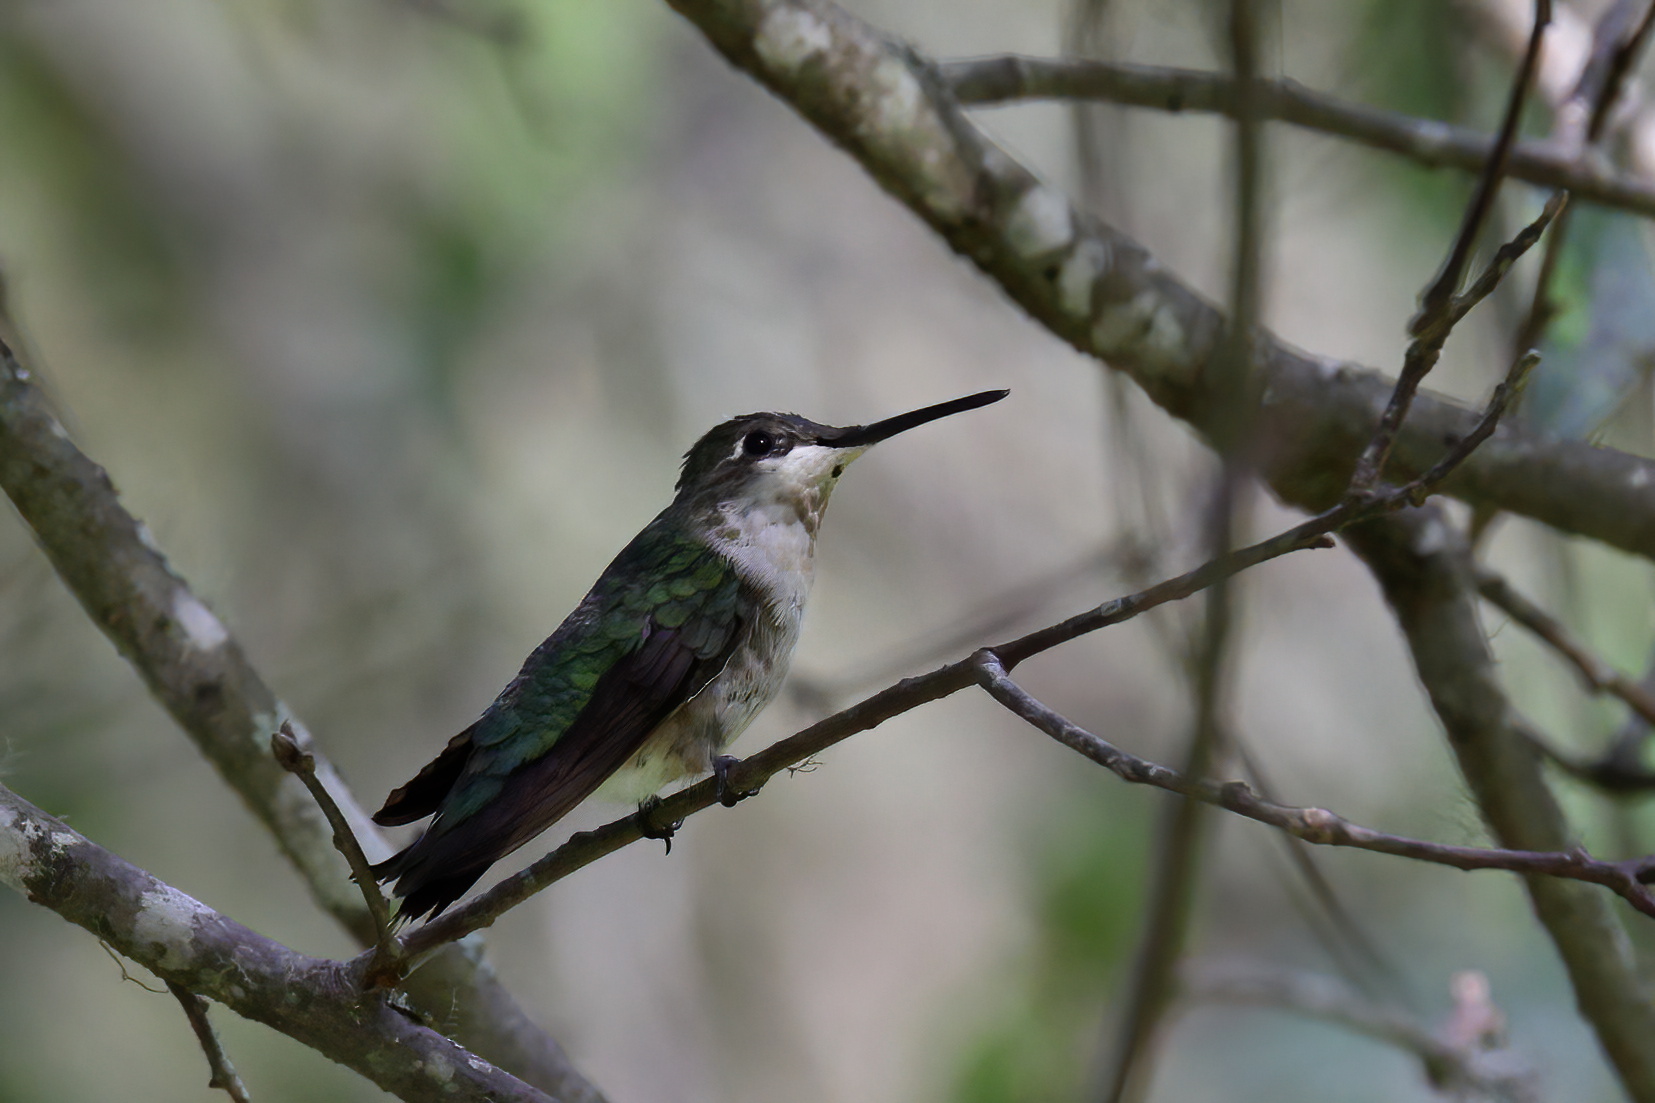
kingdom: Animalia
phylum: Chordata
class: Aves
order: Apodiformes
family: Trochilidae
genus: Archilochus
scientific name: Archilochus colubris
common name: Ruby-throated hummingbird
